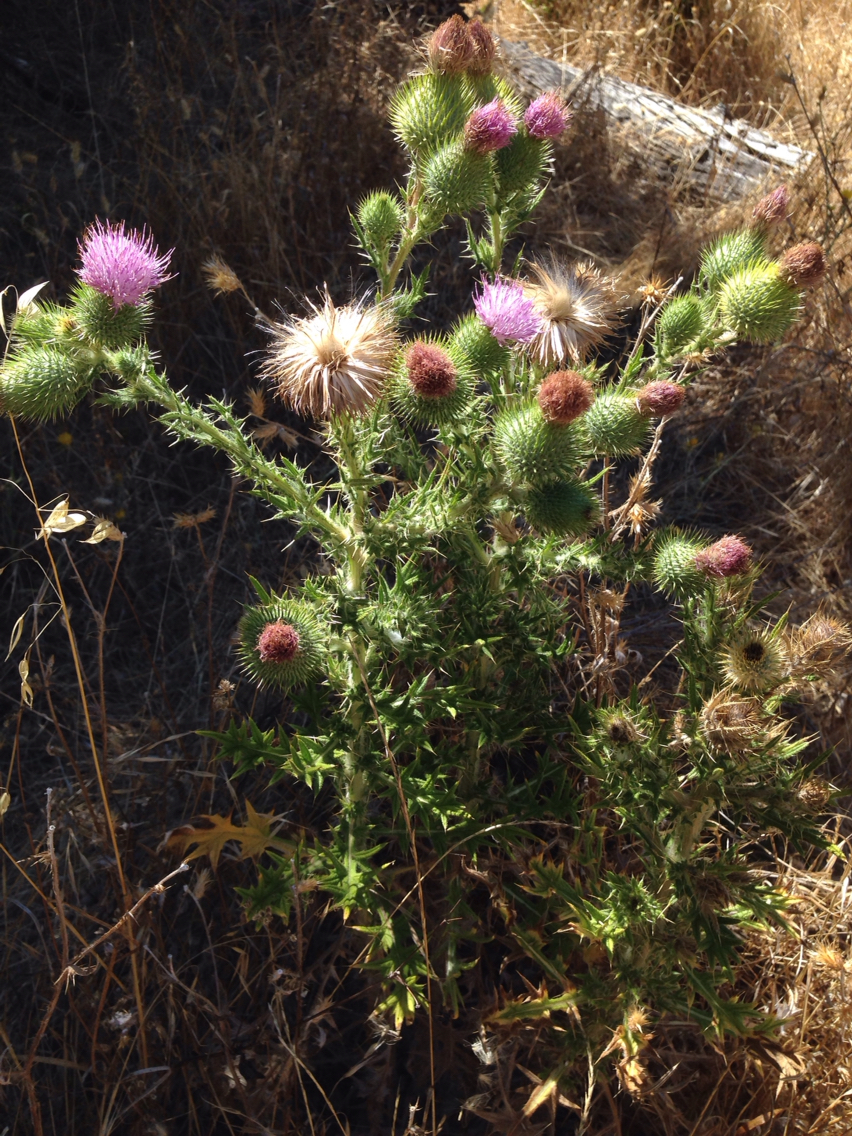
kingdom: Plantae
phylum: Tracheophyta
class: Magnoliopsida
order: Asterales
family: Asteraceae
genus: Cirsium
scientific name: Cirsium vulgare
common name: Bull thistle
